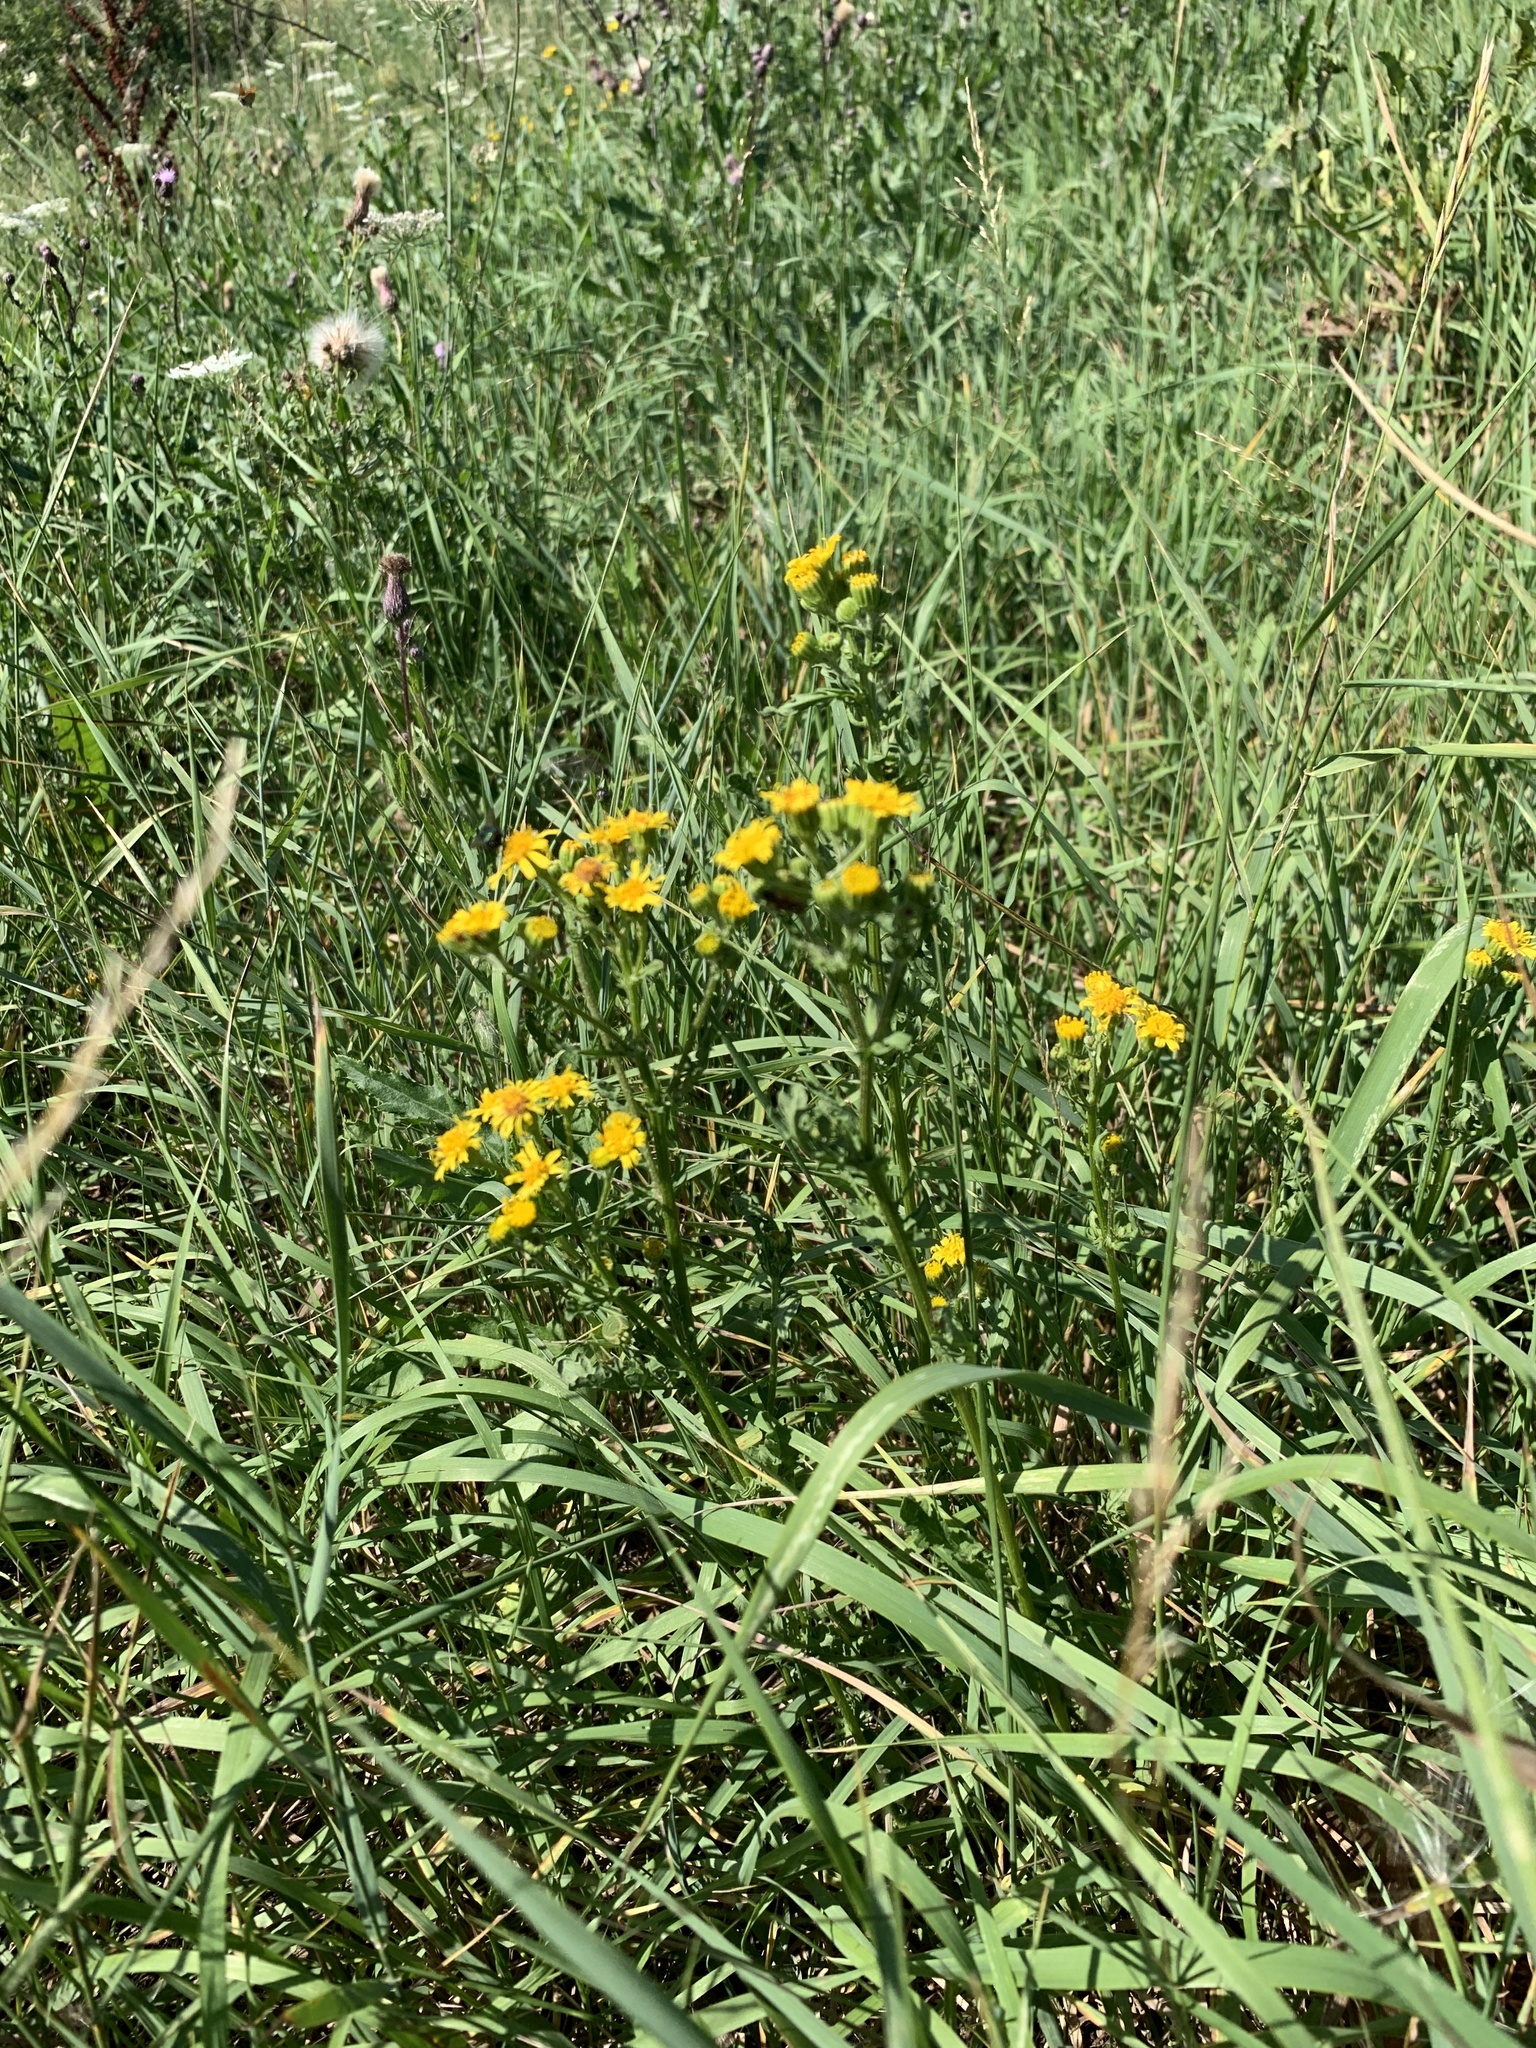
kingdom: Plantae
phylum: Tracheophyta
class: Magnoliopsida
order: Asterales
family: Asteraceae
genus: Jacobaea
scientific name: Jacobaea vulgaris
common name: Stinking willie
